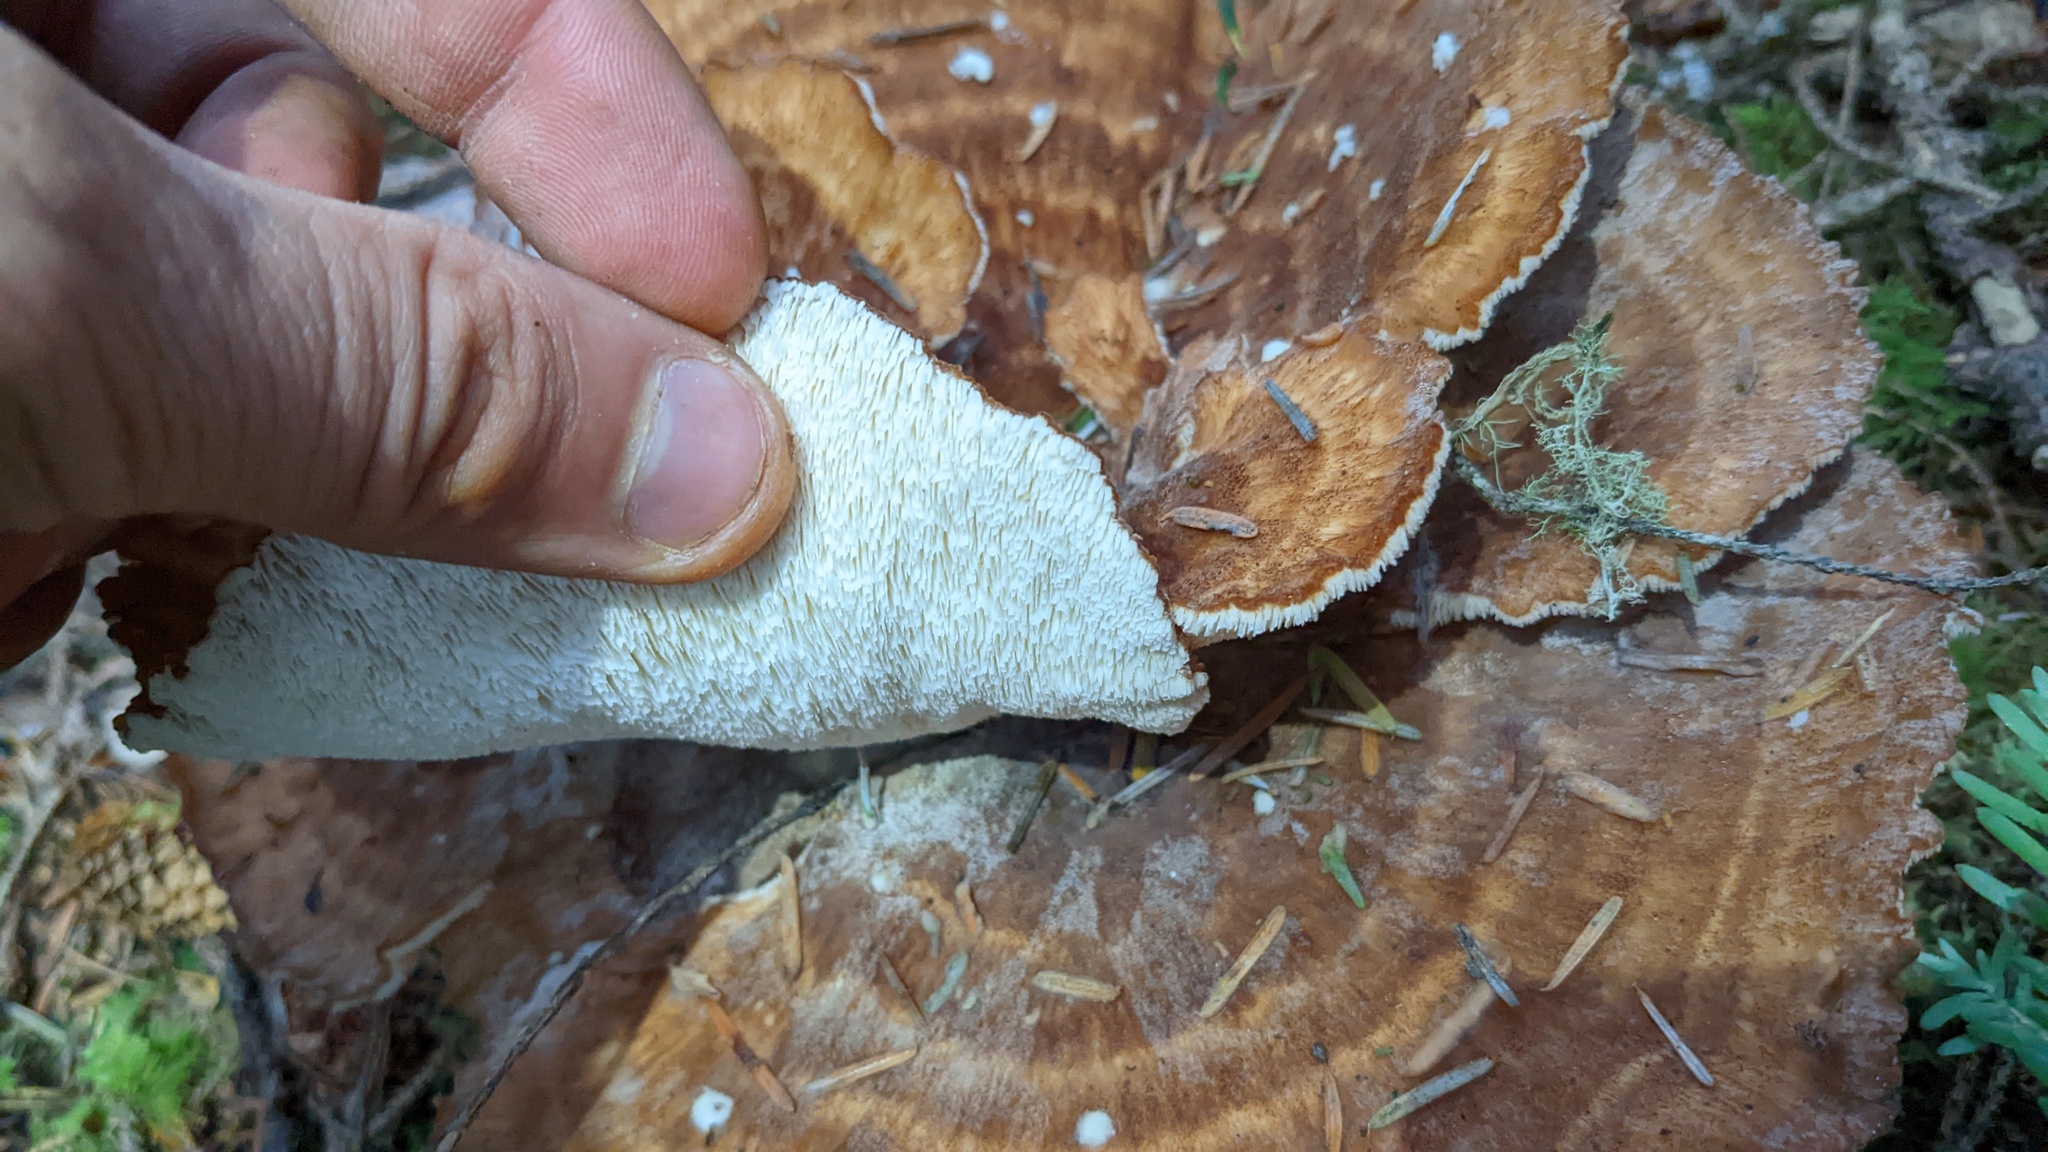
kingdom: Fungi
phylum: Basidiomycota
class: Agaricomycetes
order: Russulales
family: Bondarzewiaceae
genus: Bondarzewia
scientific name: Bondarzewia occidentalis
